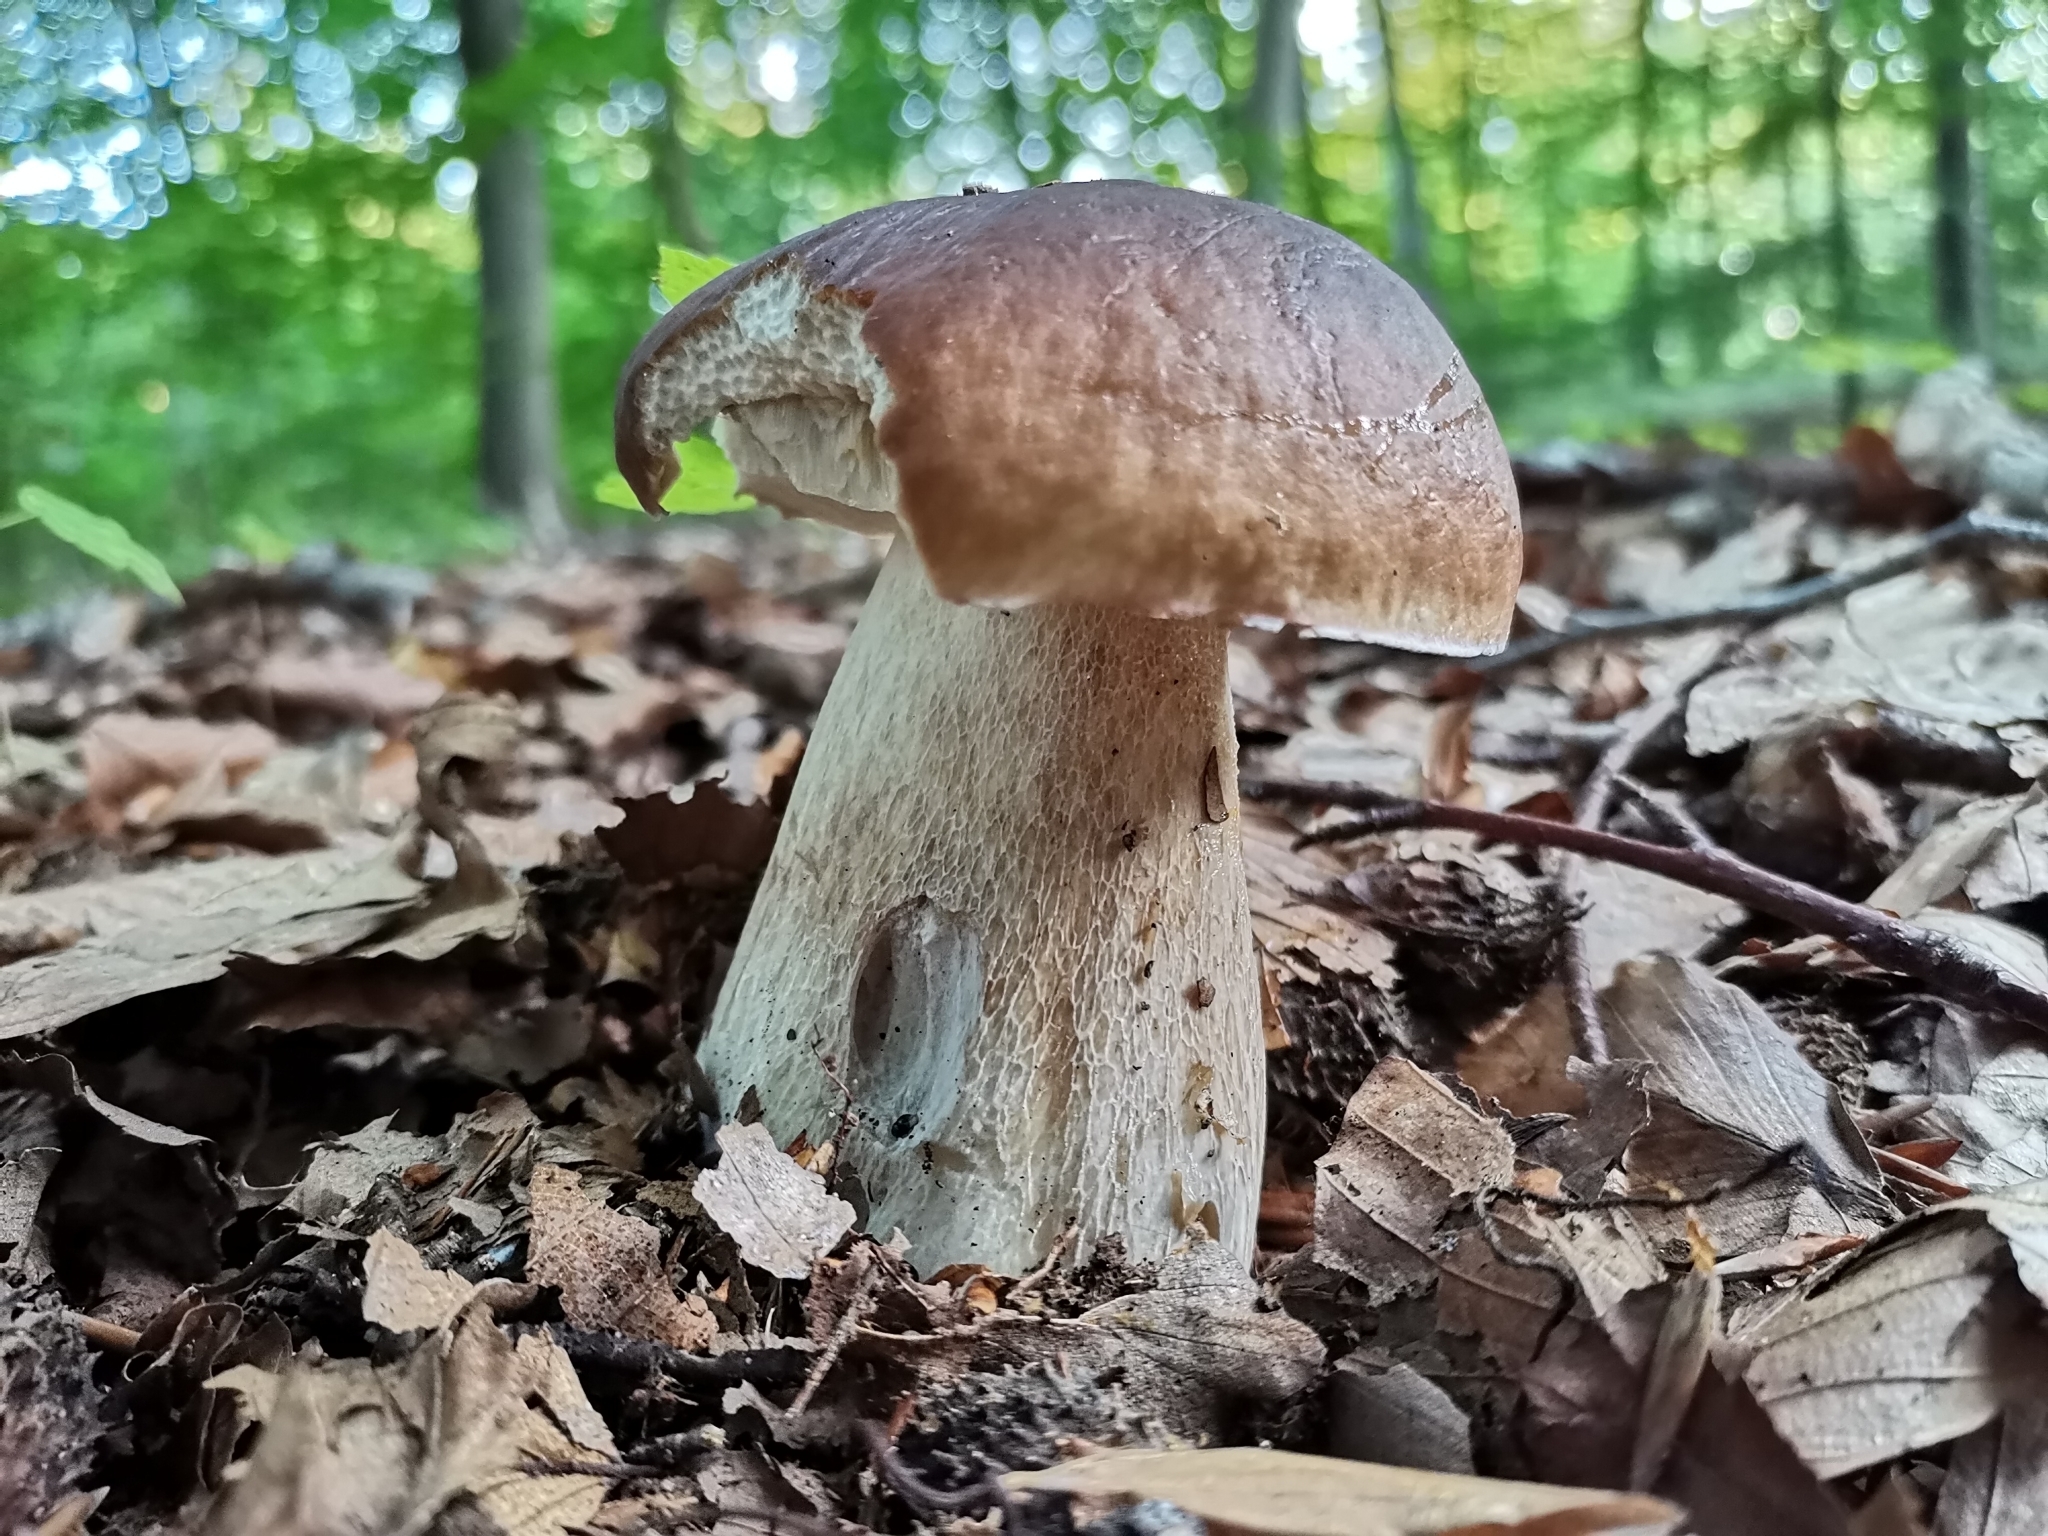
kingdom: Fungi
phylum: Basidiomycota
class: Agaricomycetes
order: Boletales
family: Boletaceae
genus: Boletus
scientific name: Boletus edulis
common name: Cep
